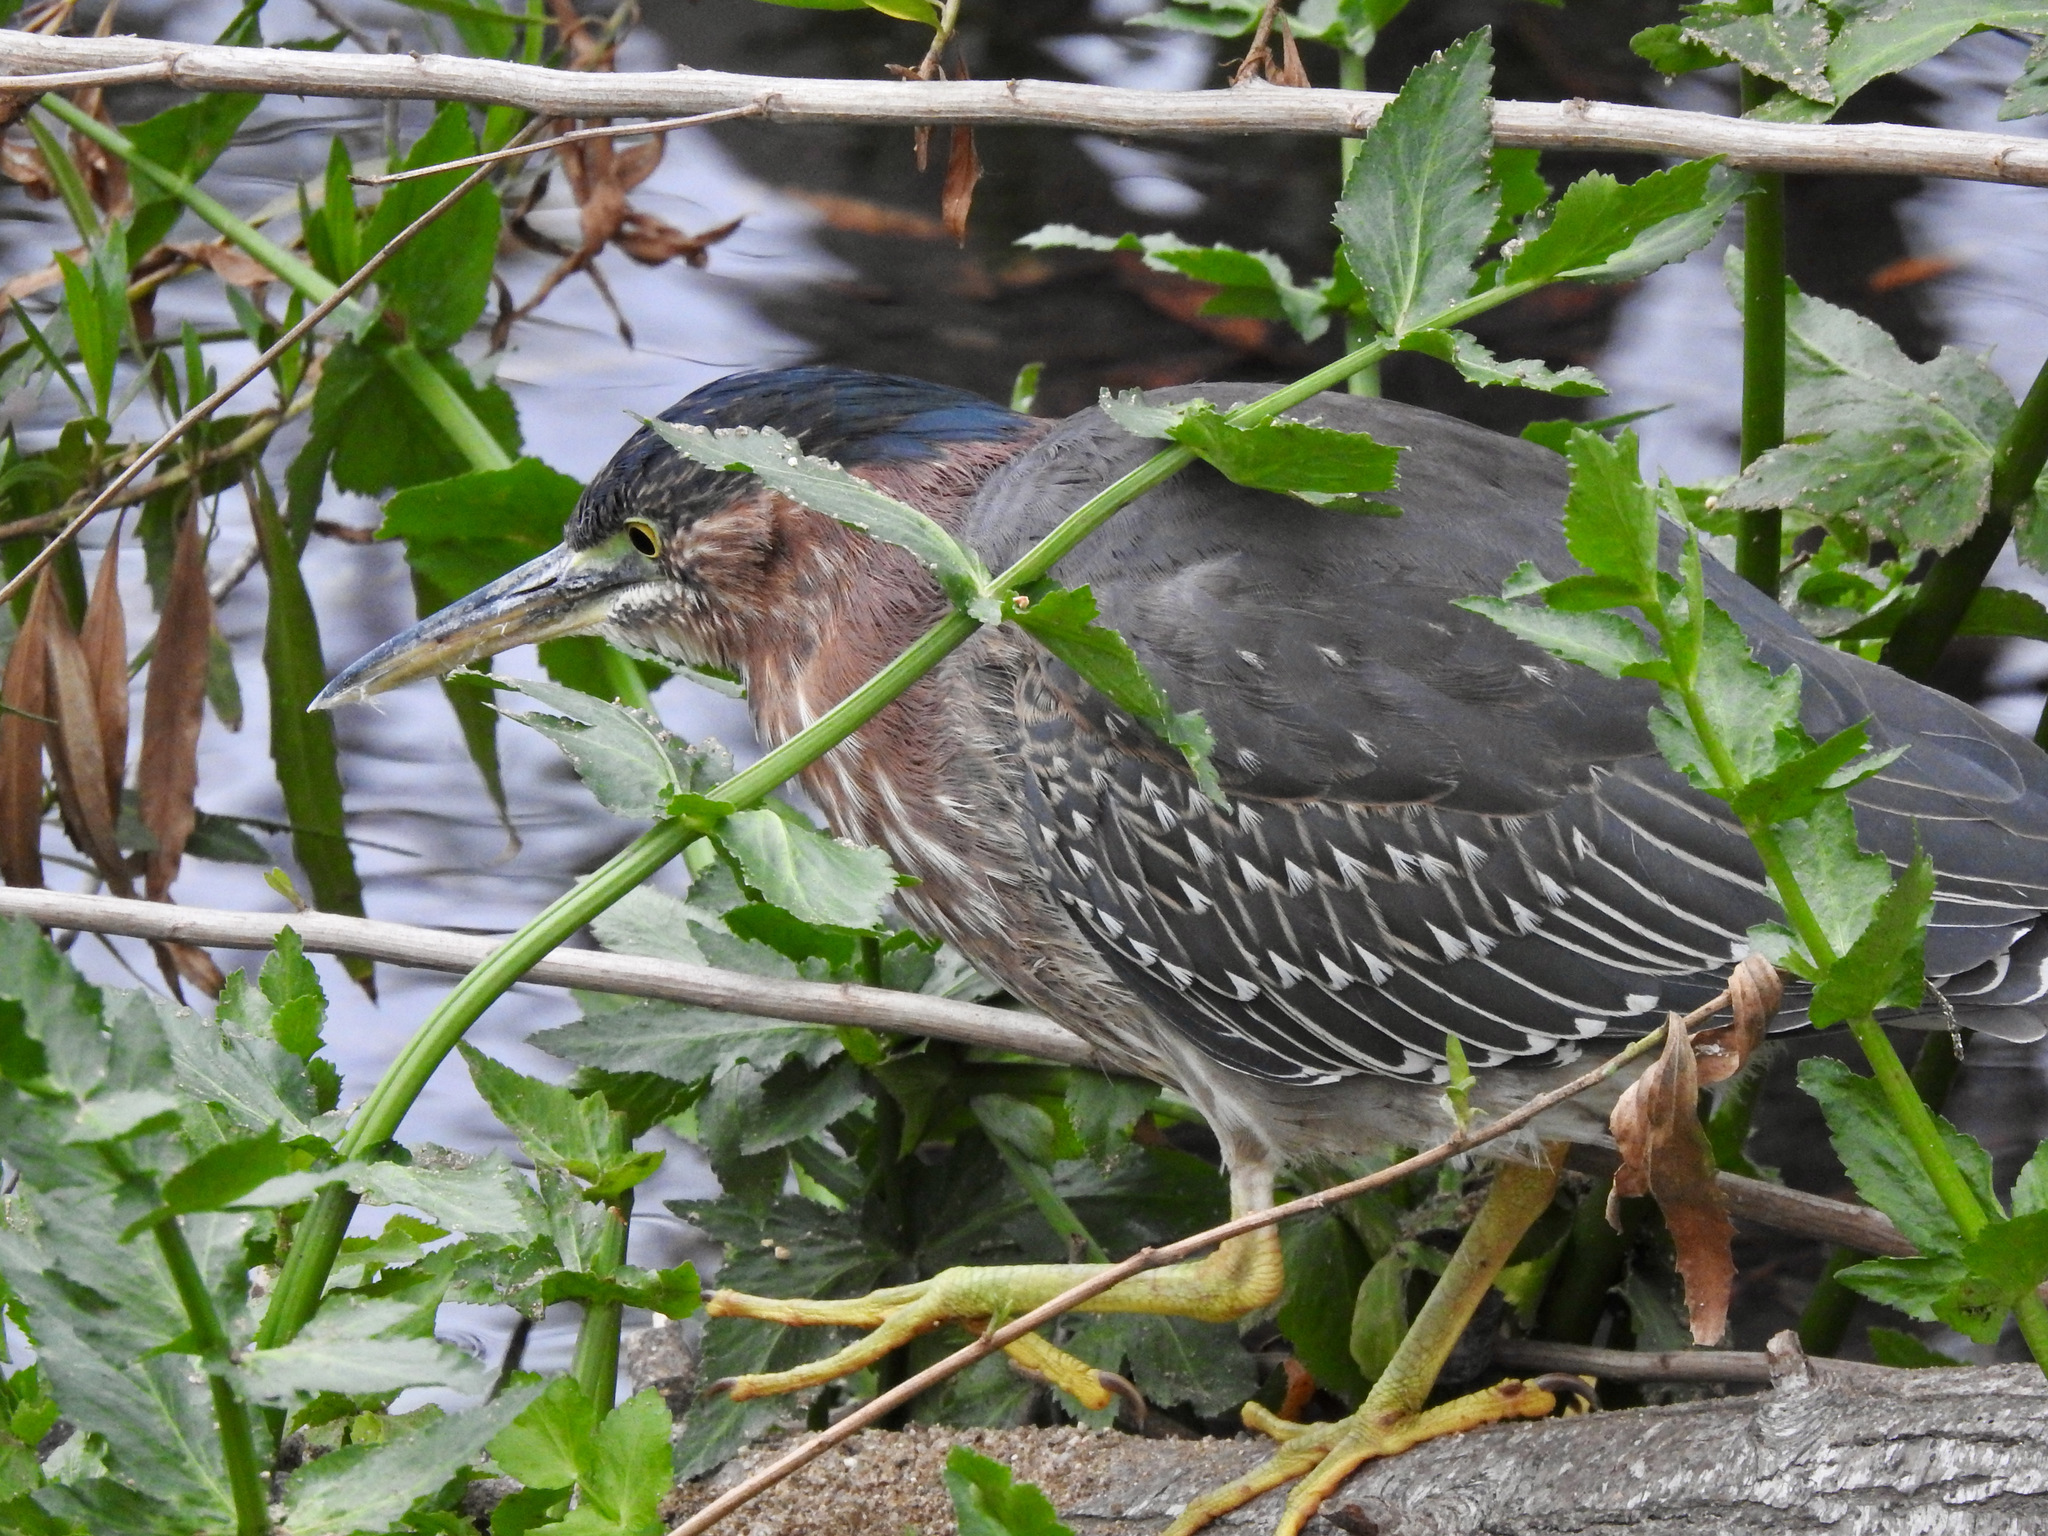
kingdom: Animalia
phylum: Chordata
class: Aves
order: Pelecaniformes
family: Ardeidae
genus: Butorides
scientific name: Butorides virescens
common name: Green heron
